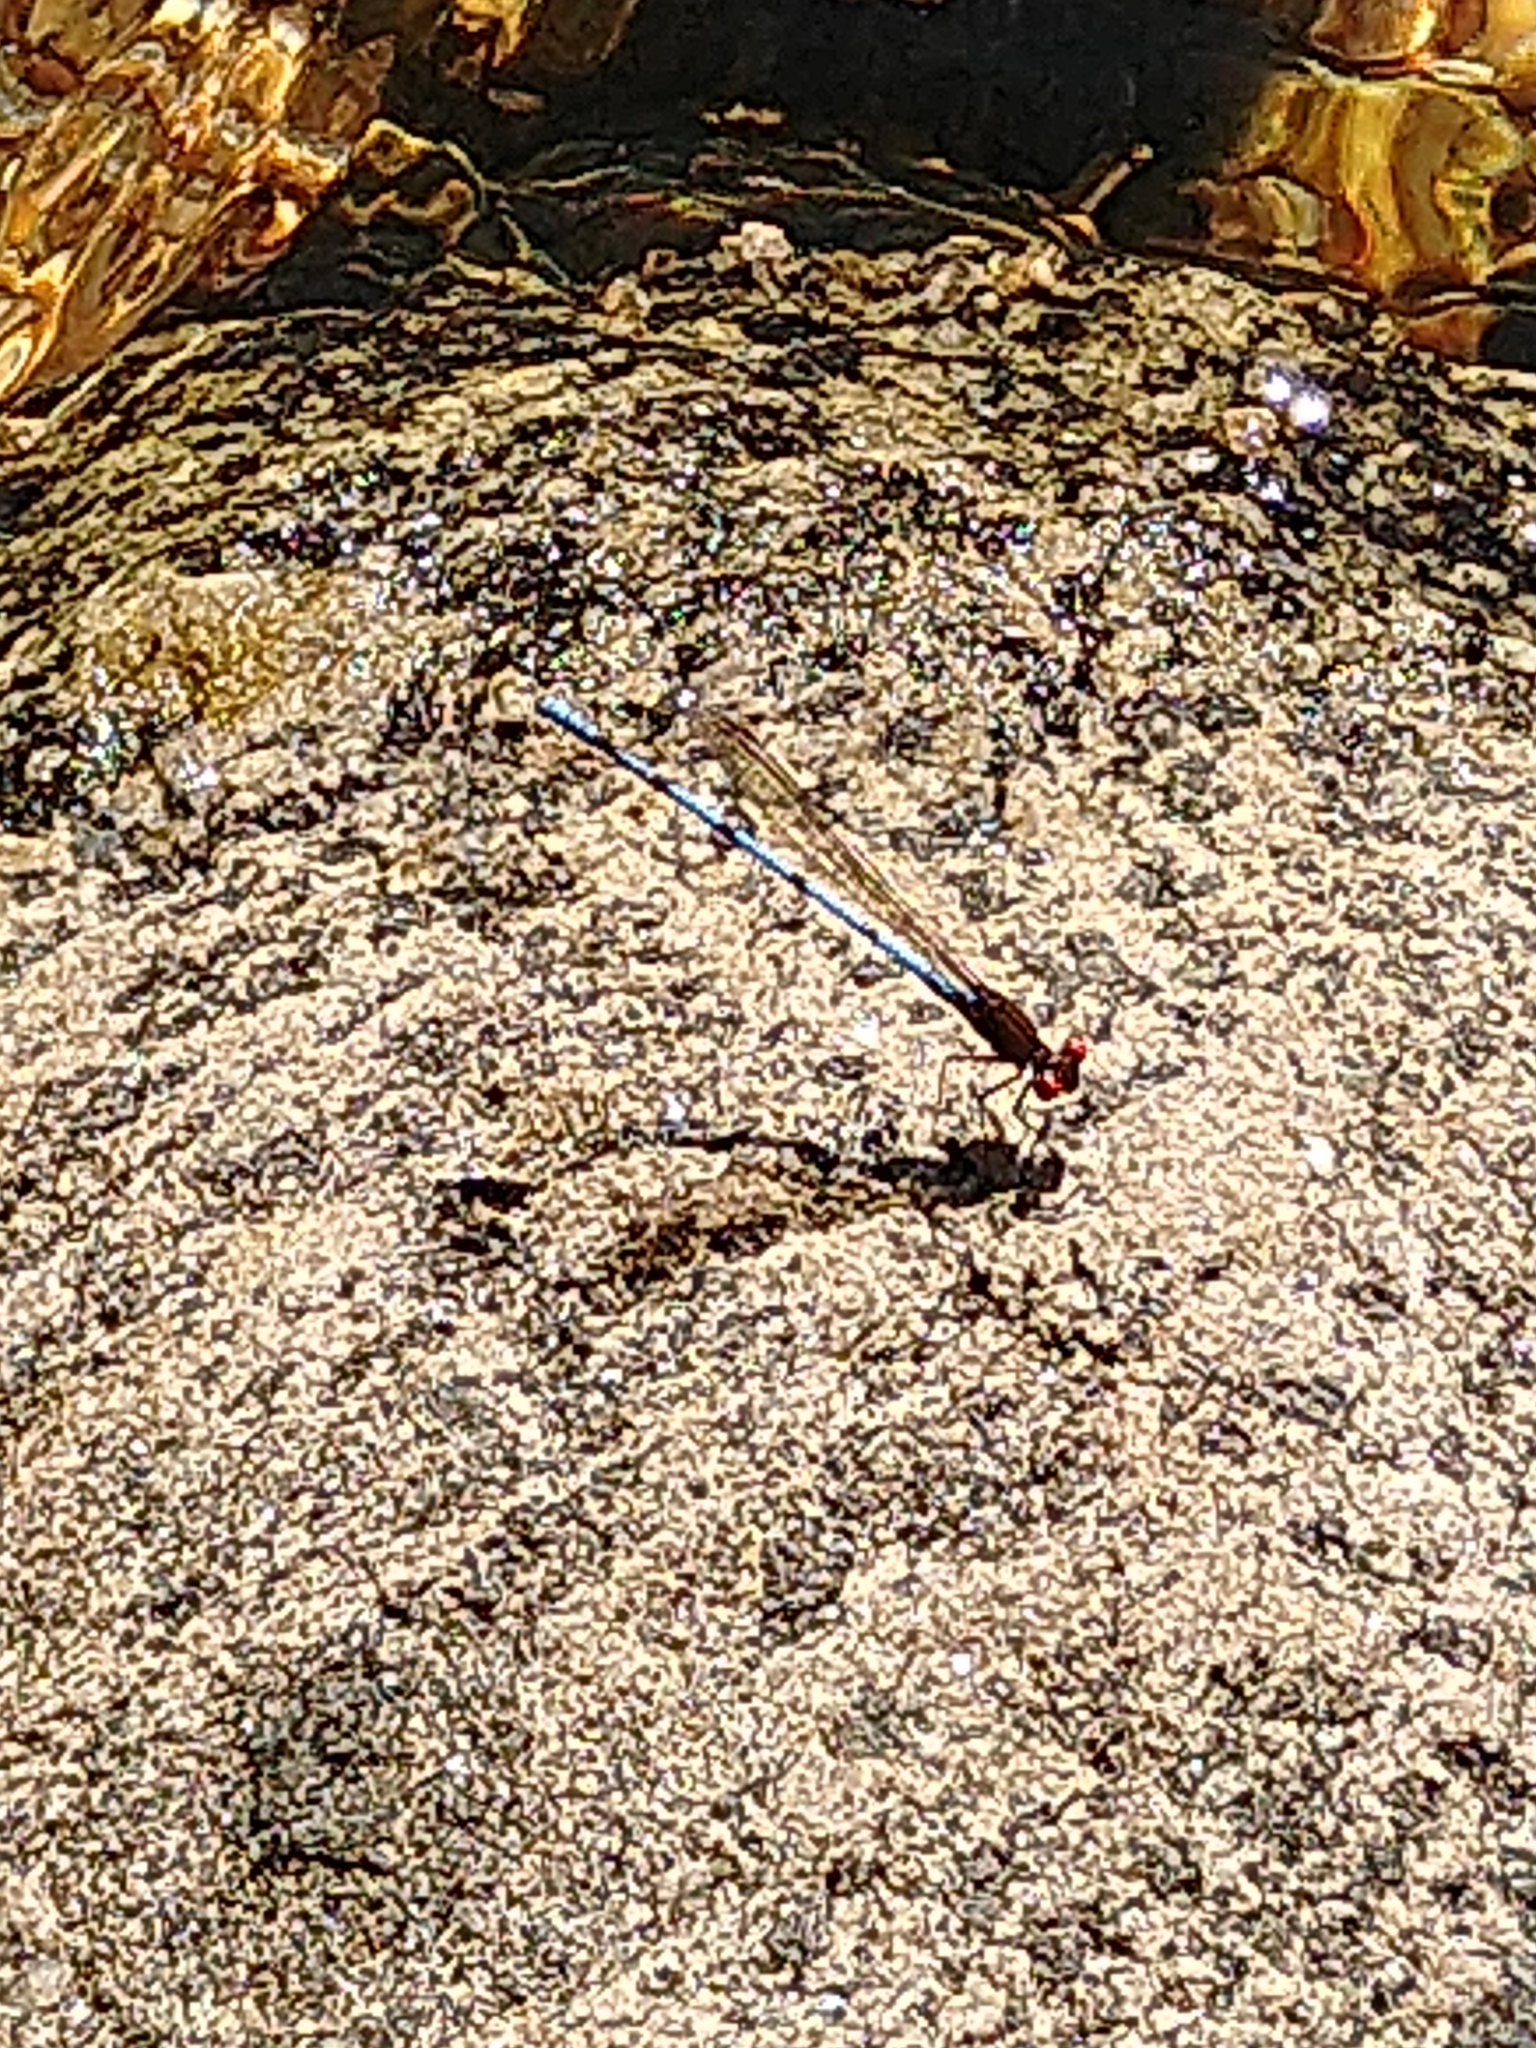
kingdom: Animalia
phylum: Arthropoda
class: Insecta
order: Odonata
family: Coenagrionidae
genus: Argia
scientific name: Argia joergenseni
